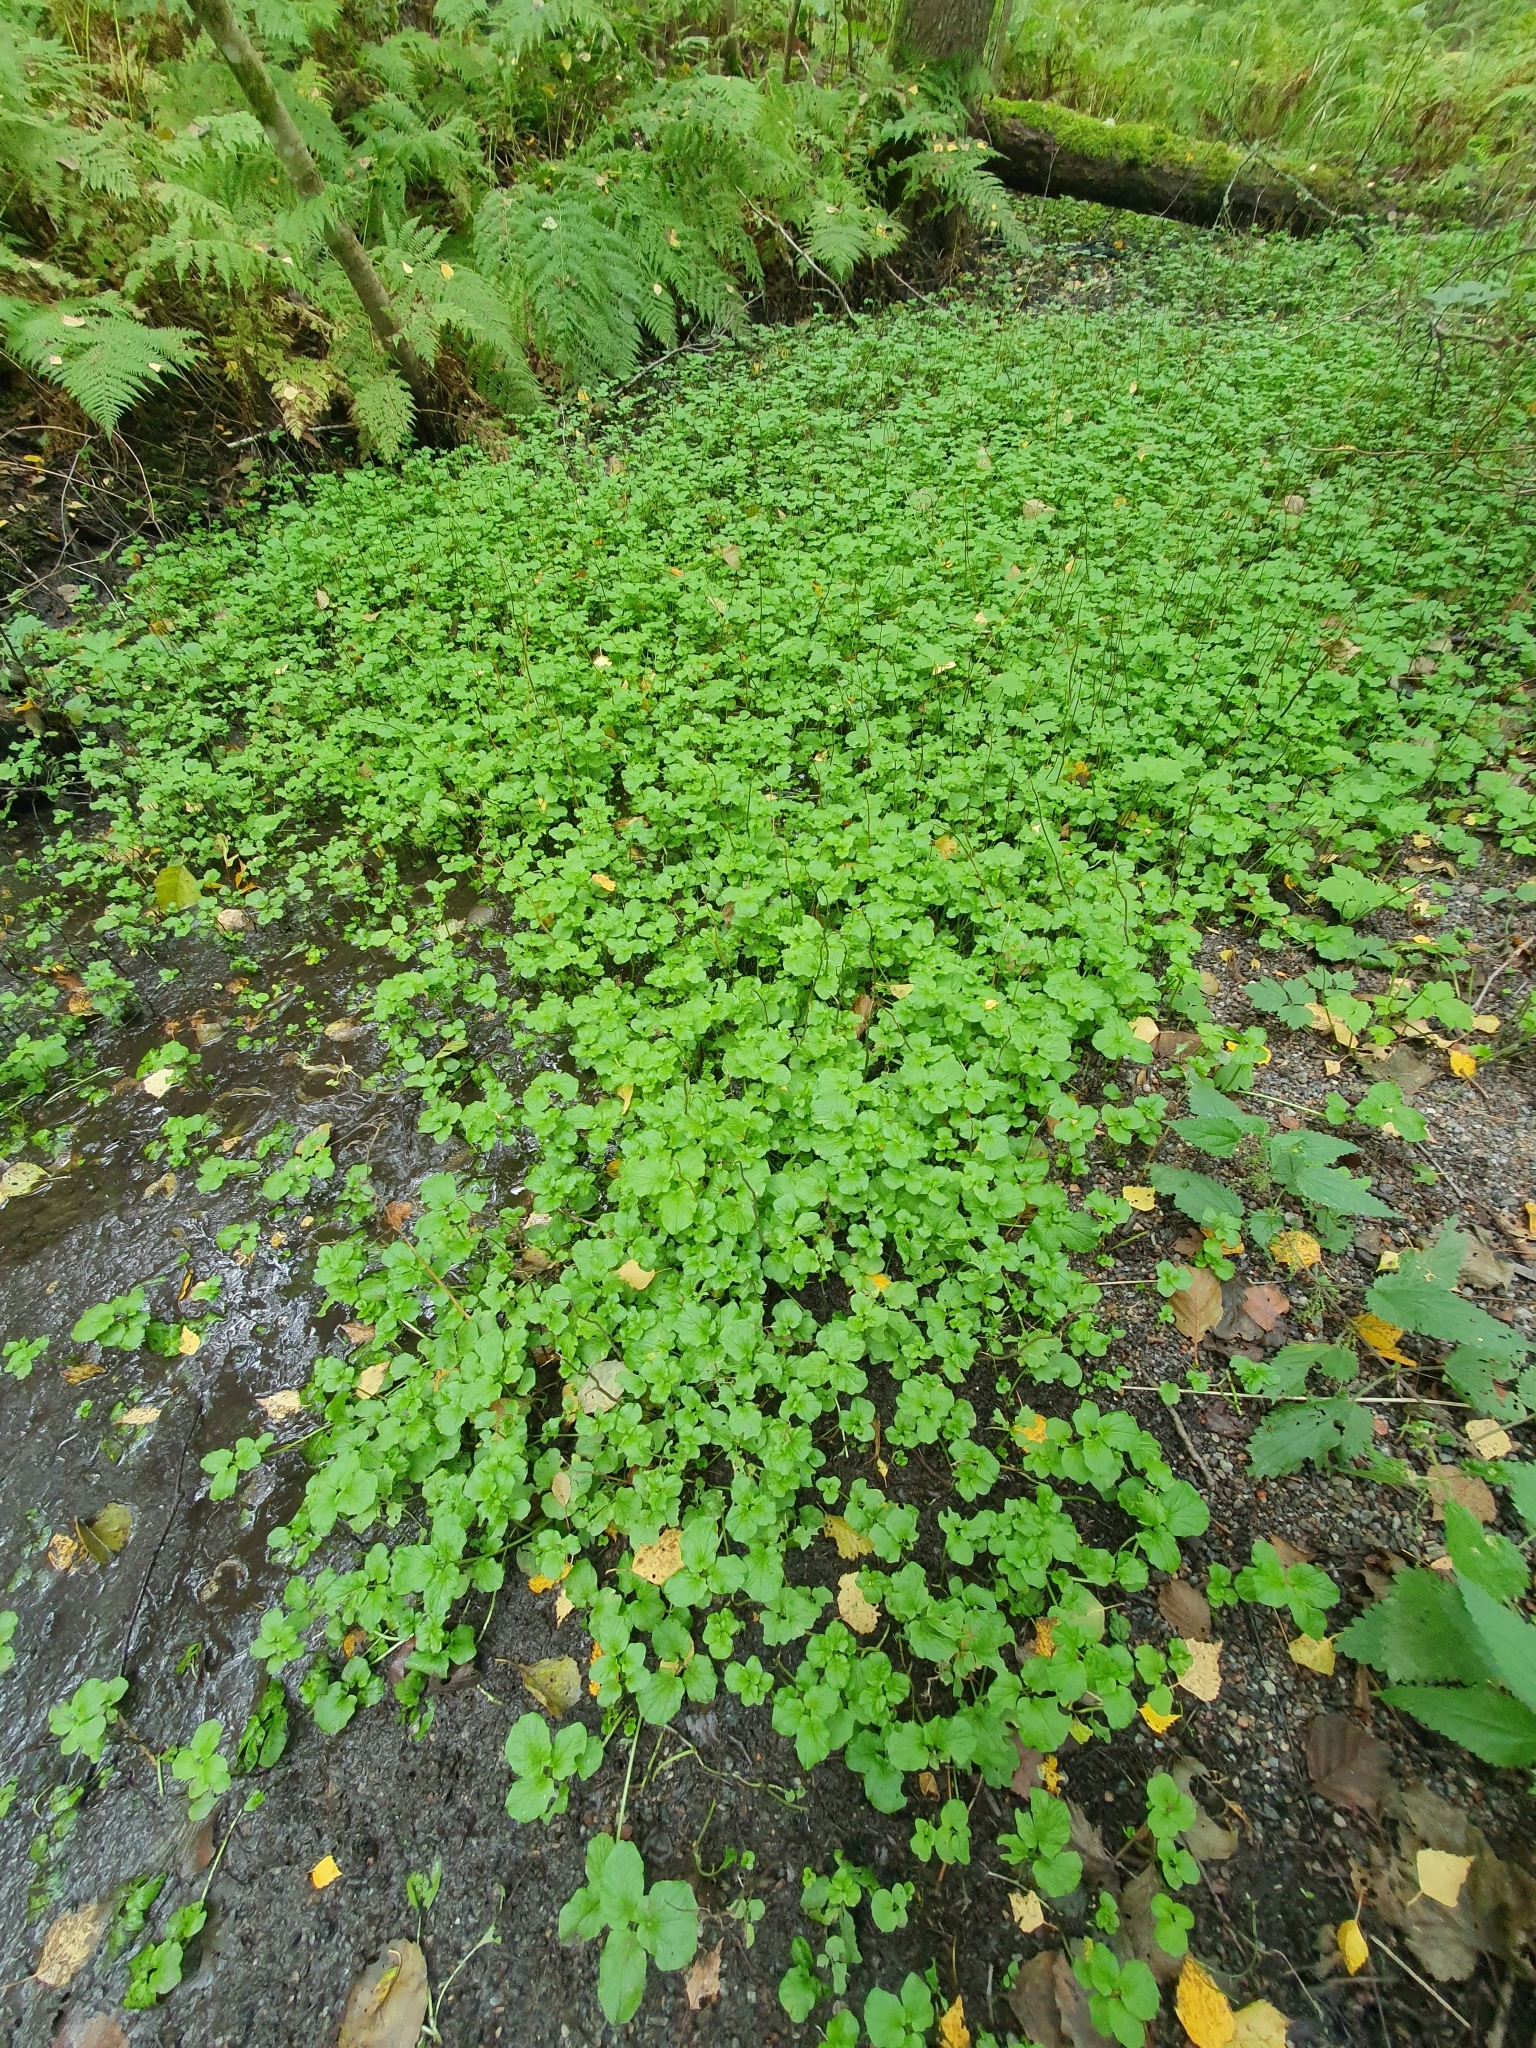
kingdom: Plantae
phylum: Tracheophyta
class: Magnoliopsida
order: Brassicales
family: Brassicaceae
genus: Cardamine
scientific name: Cardamine amara
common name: Large bitter-cress
